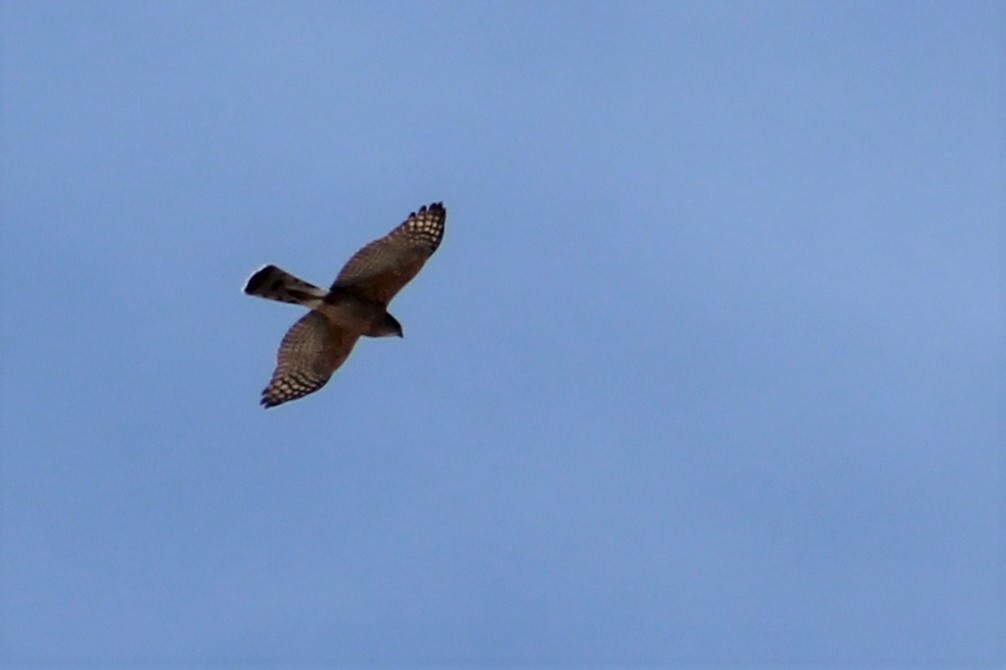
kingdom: Animalia
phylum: Chordata
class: Aves
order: Accipitriformes
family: Accipitridae
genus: Accipiter
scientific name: Accipiter striatus
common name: Sharp-shinned hawk
